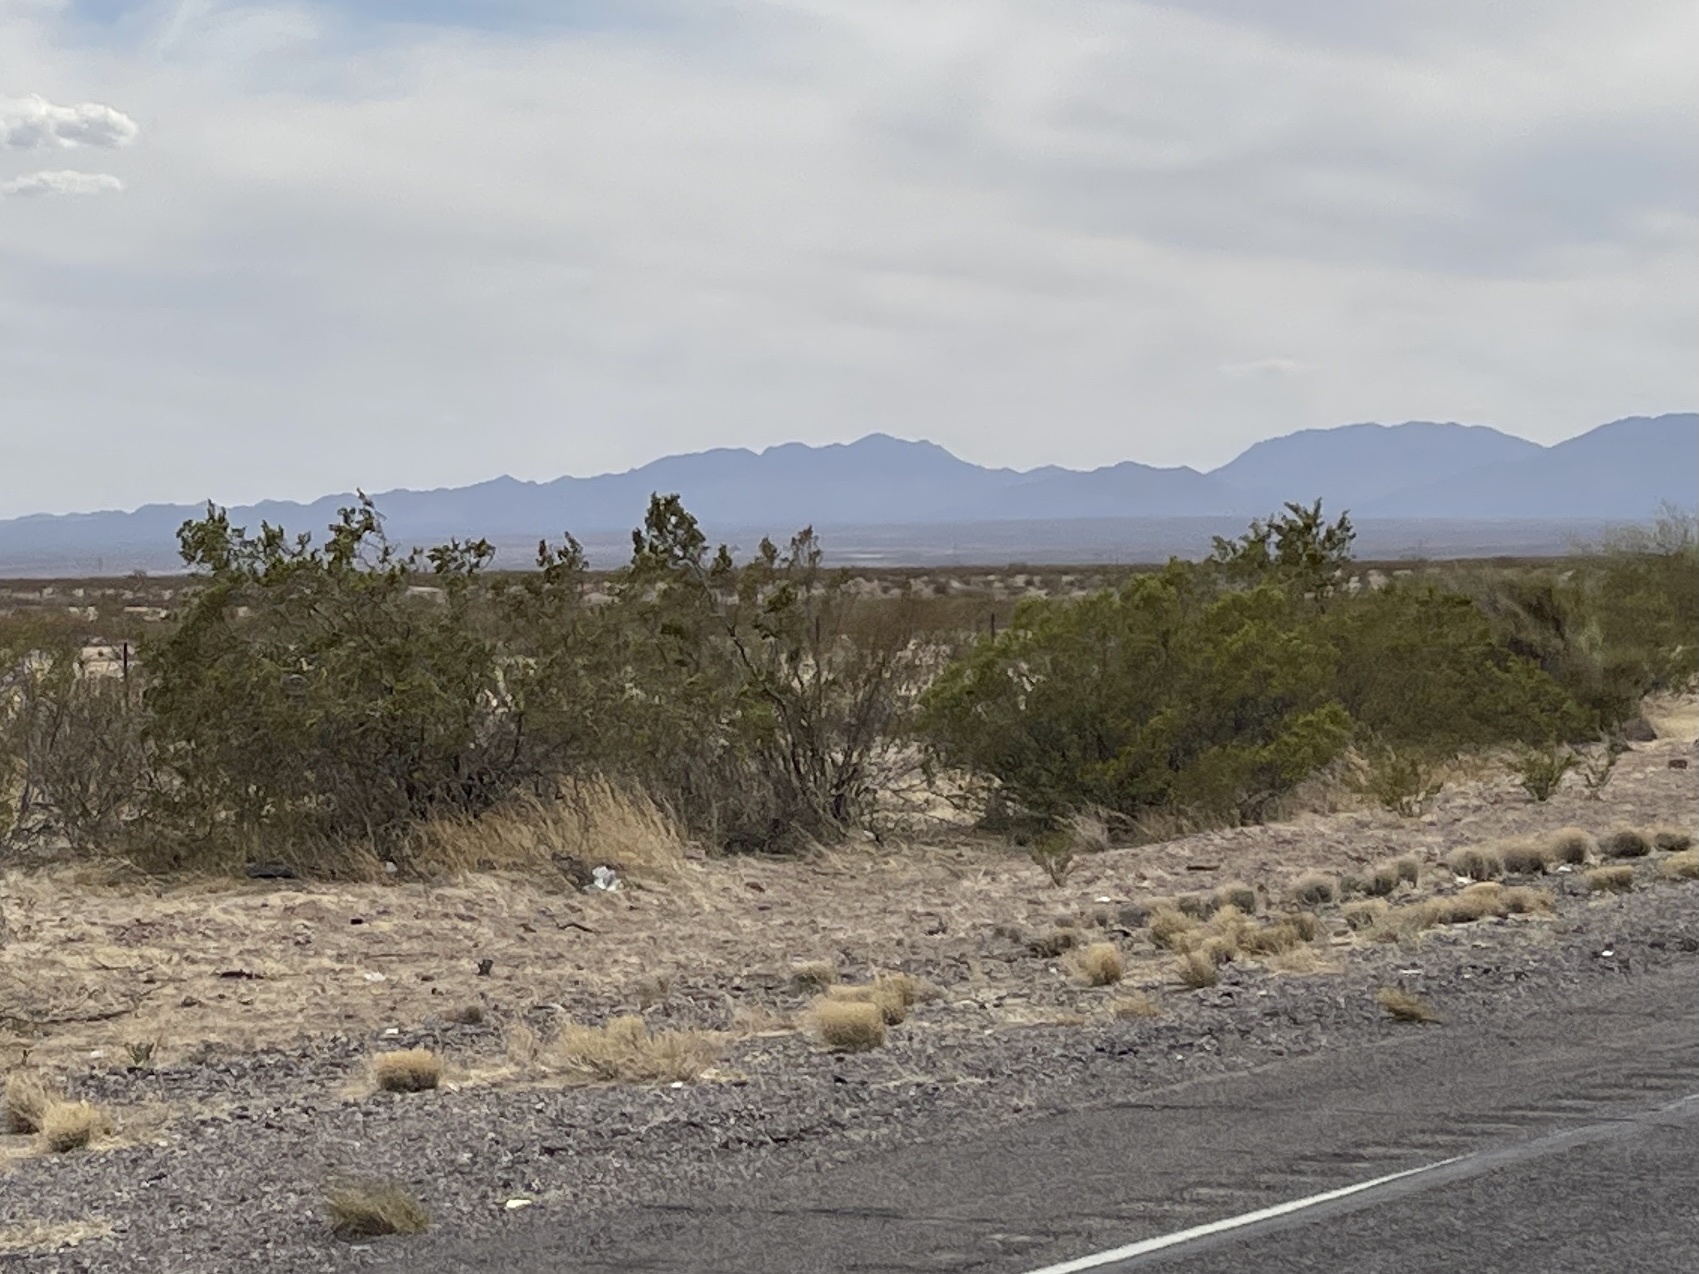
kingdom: Plantae
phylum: Tracheophyta
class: Magnoliopsida
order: Zygophyllales
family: Zygophyllaceae
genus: Larrea
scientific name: Larrea tridentata
